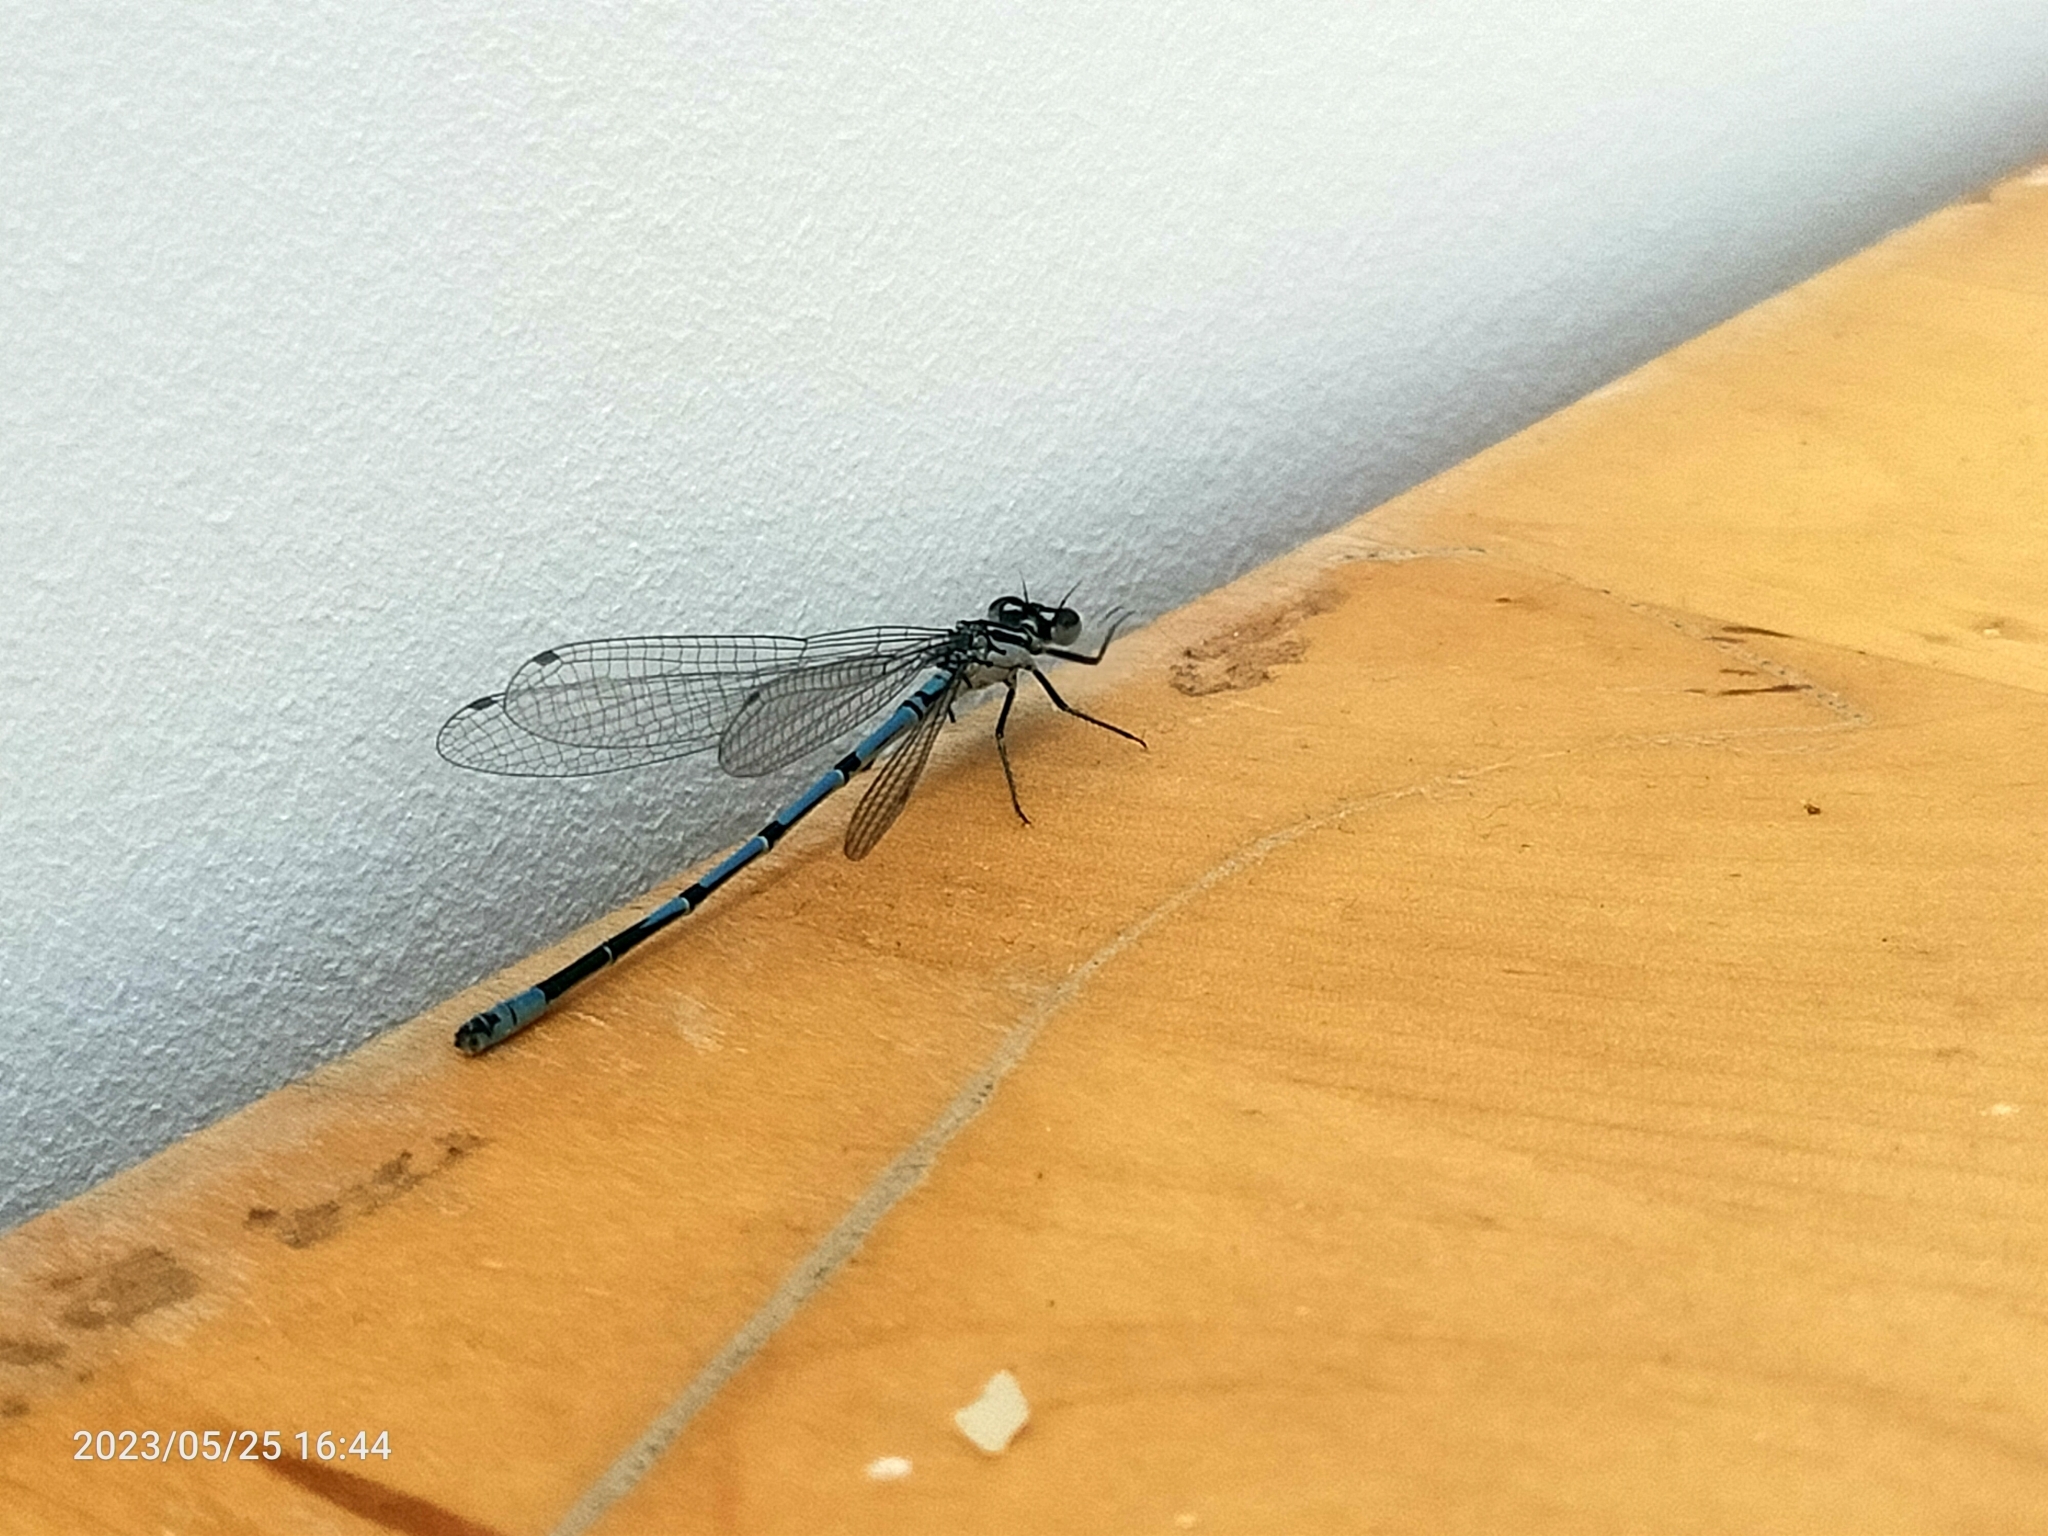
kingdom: Animalia
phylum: Arthropoda
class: Insecta
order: Odonata
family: Coenagrionidae
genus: Coenagrion
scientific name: Coenagrion puella
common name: Azure damselfly
